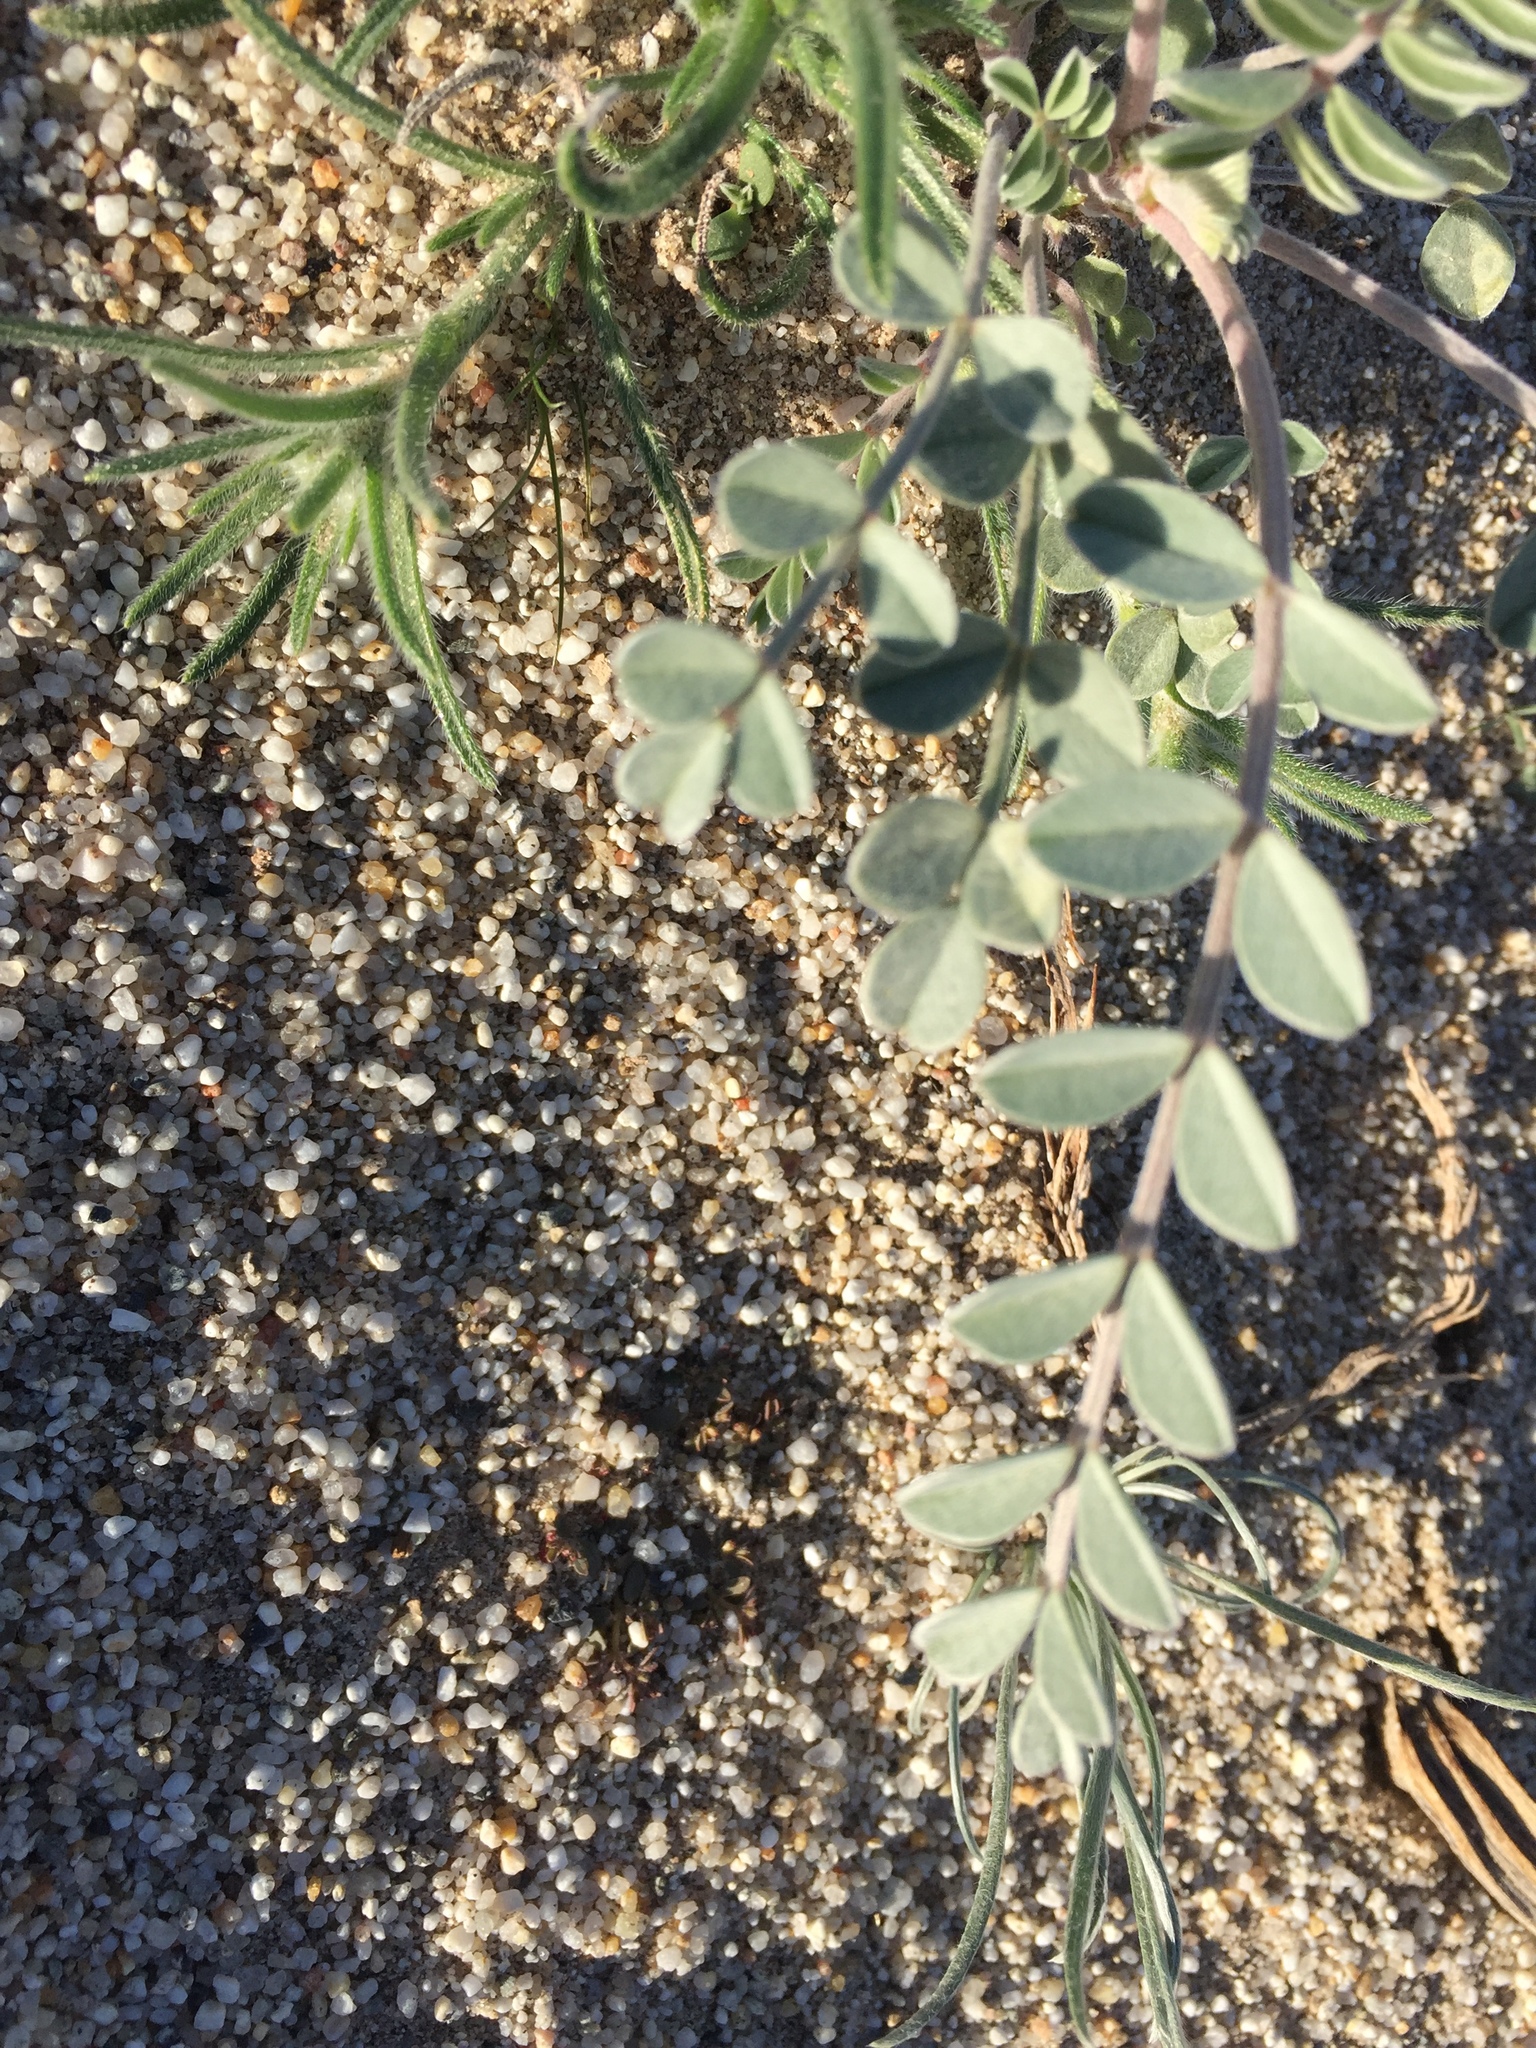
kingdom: Plantae
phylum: Tracheophyta
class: Magnoliopsida
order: Fabales
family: Fabaceae
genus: Astragalus
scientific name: Astragalus lentiginosus
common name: Freckled milkvetch
